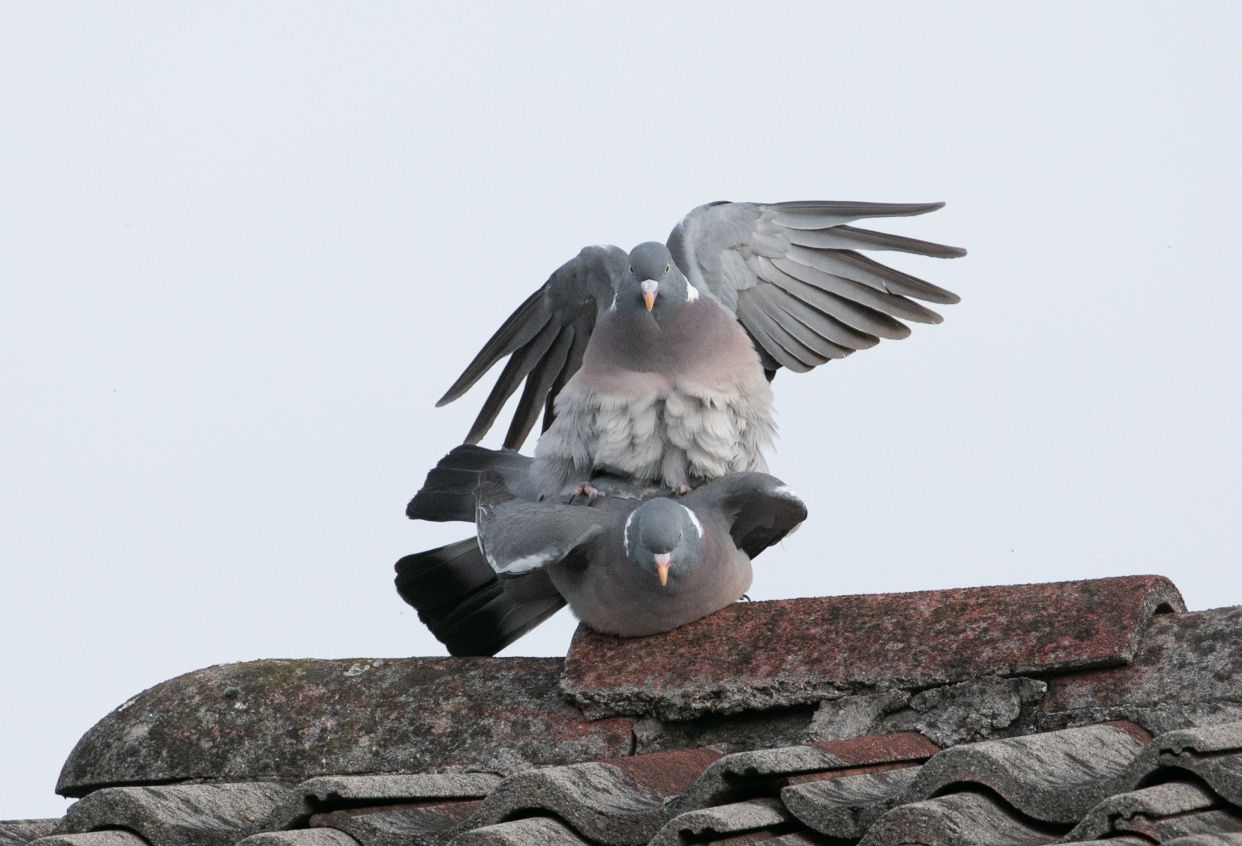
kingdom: Animalia
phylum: Chordata
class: Aves
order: Columbiformes
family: Columbidae
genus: Columba
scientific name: Columba palumbus
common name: Common wood pigeon
